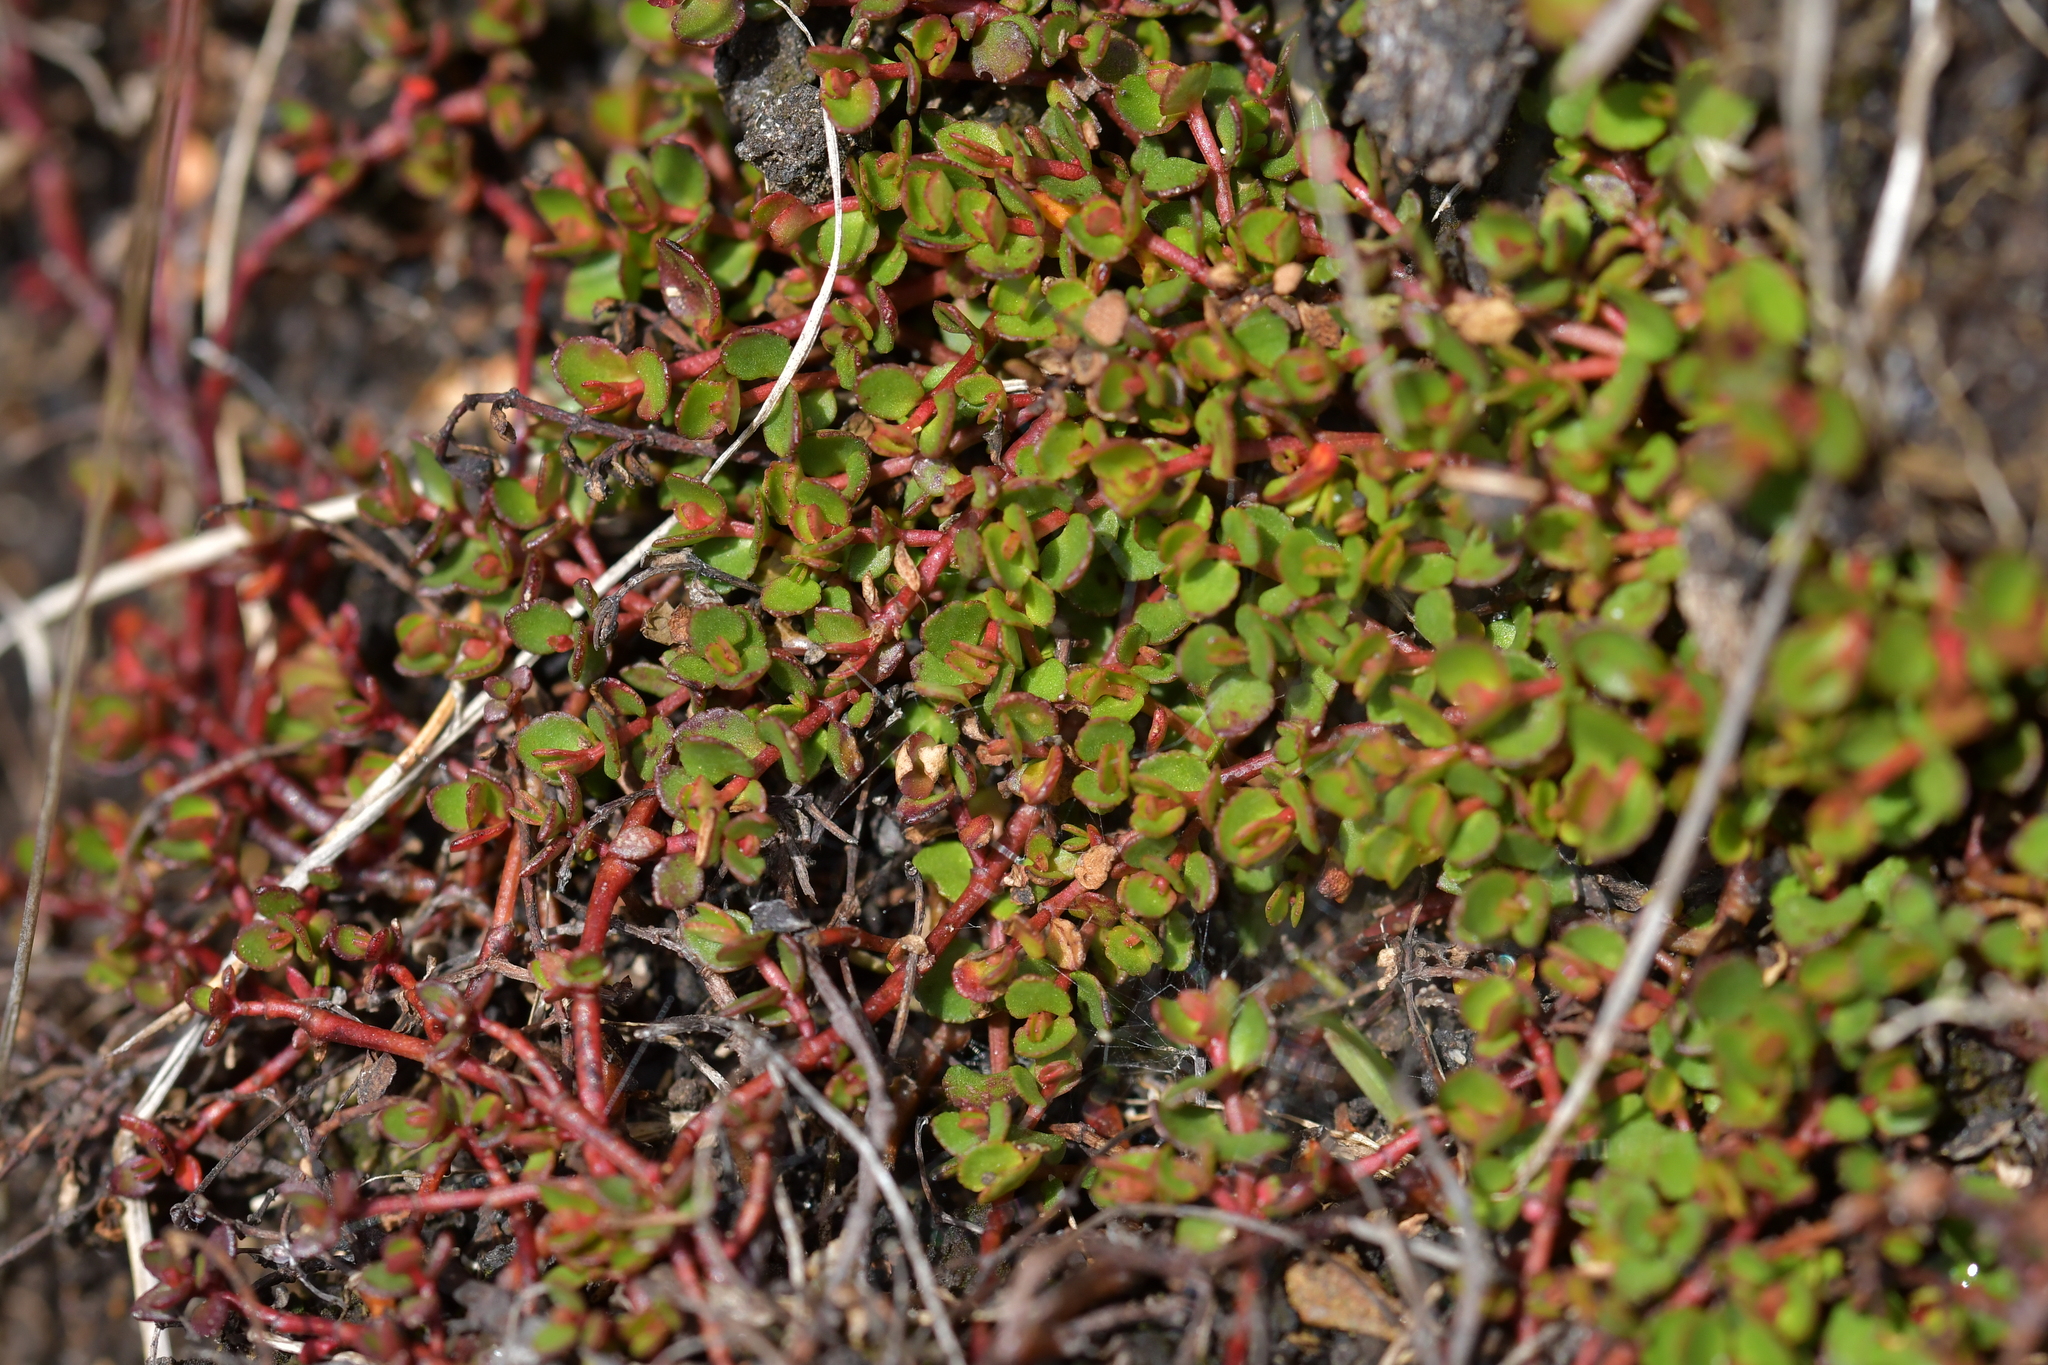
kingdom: Plantae
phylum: Tracheophyta
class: Magnoliopsida
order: Saxifragales
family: Haloragaceae
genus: Gonocarpus
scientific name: Gonocarpus micranthus
